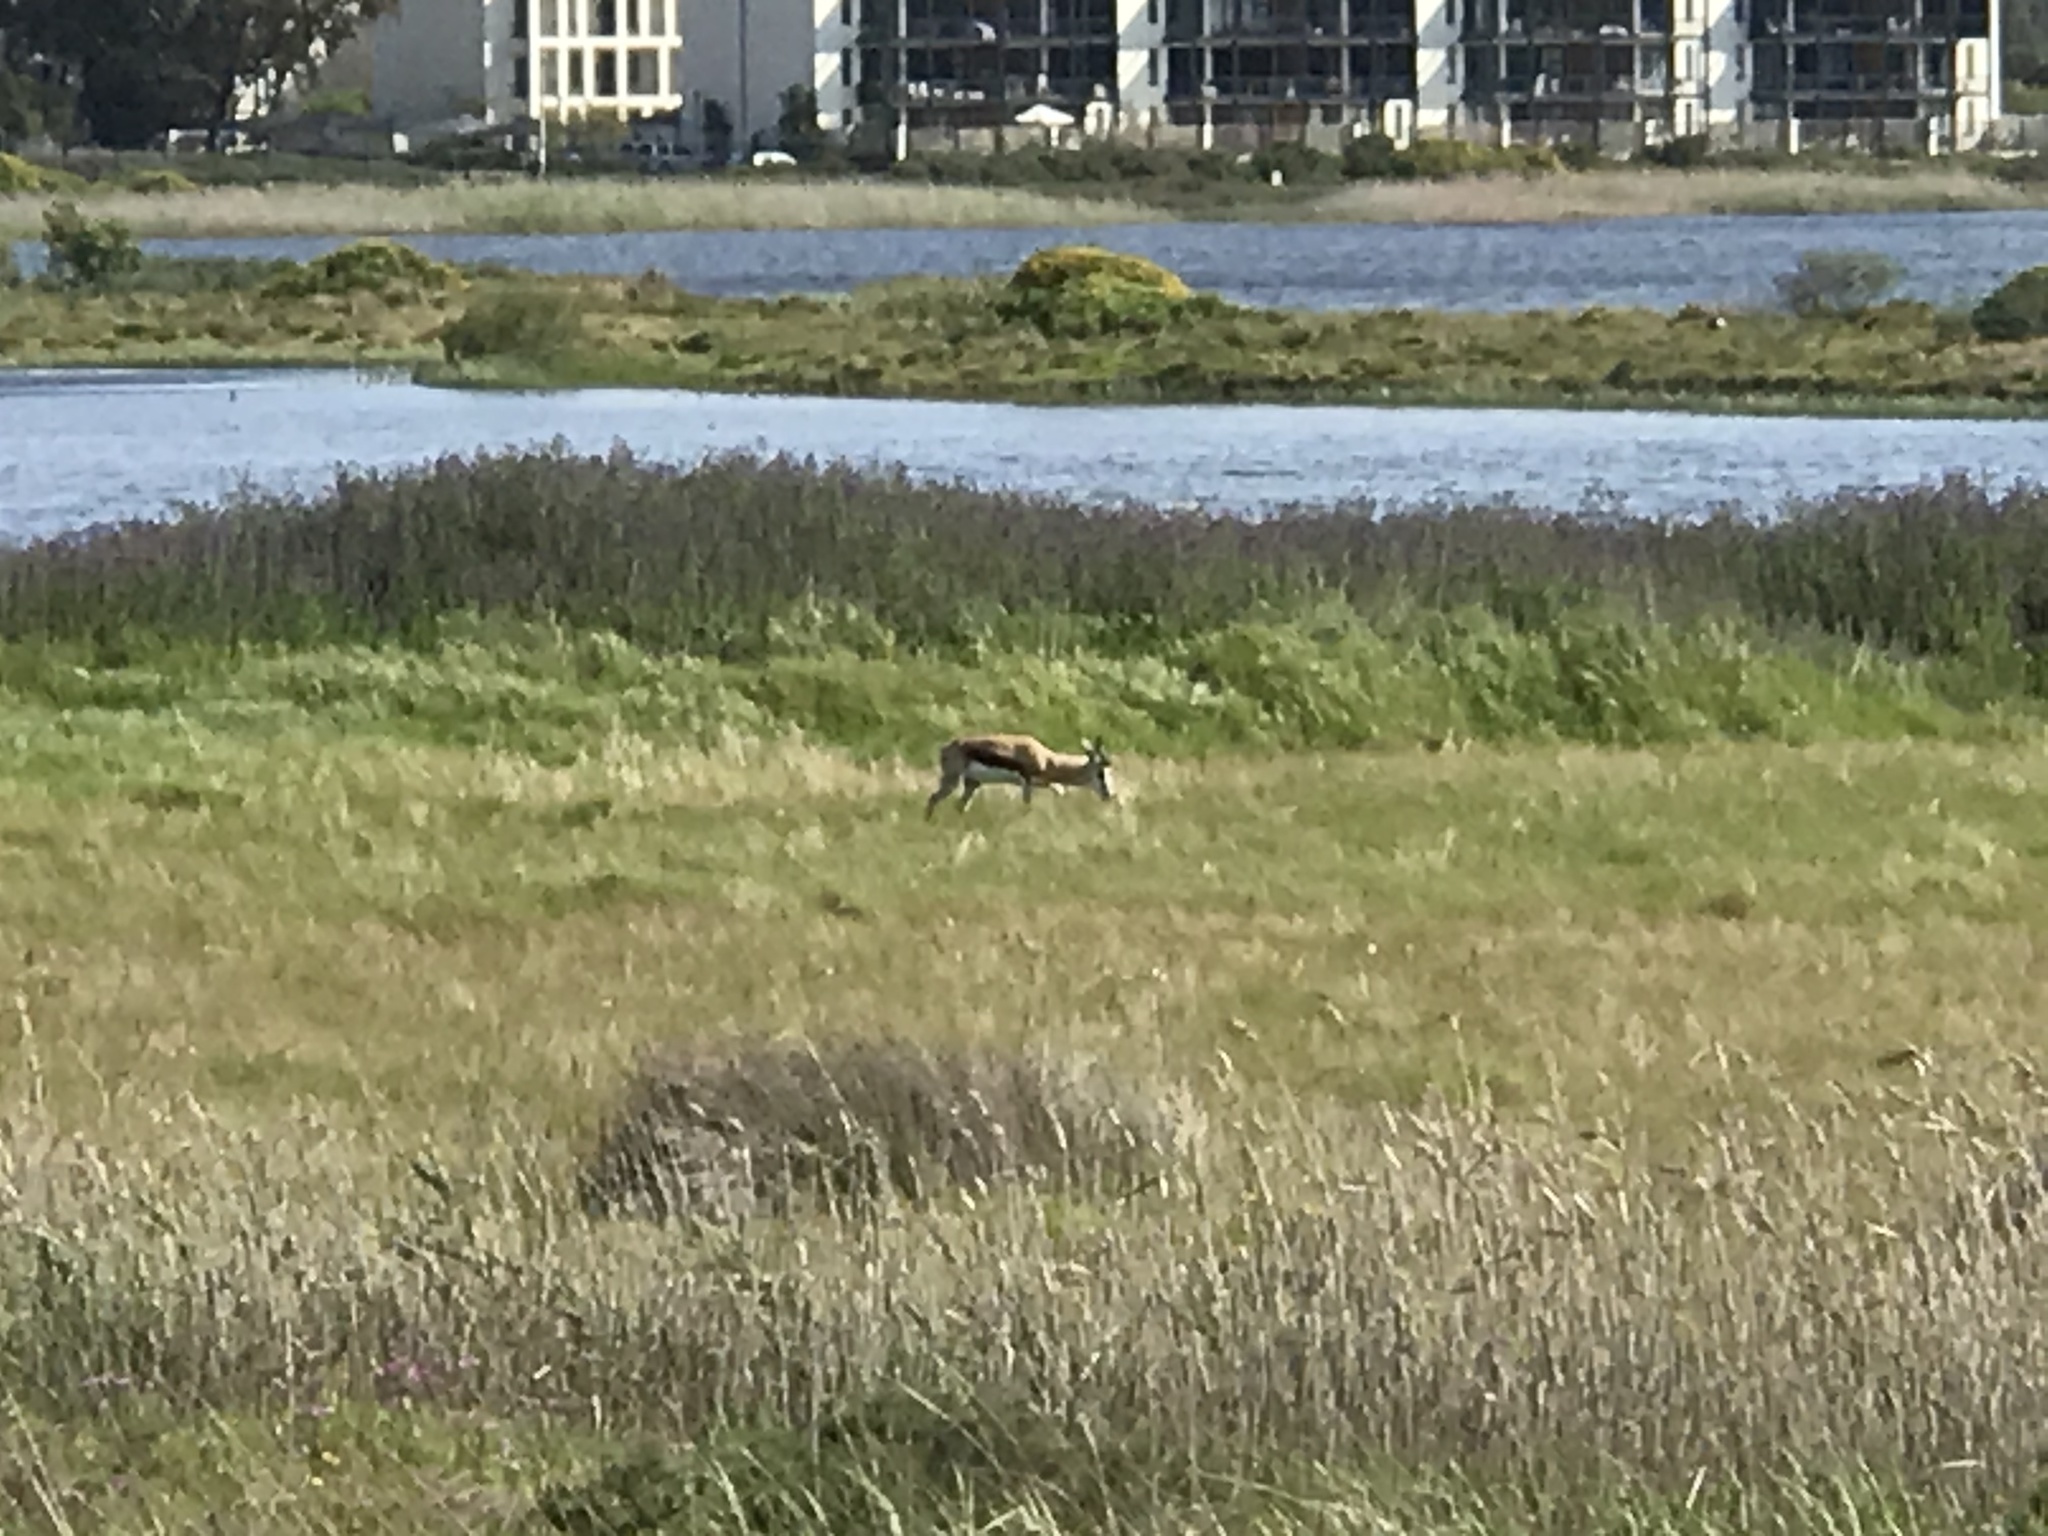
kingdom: Animalia
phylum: Chordata
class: Mammalia
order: Artiodactyla
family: Bovidae
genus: Antidorcas
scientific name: Antidorcas marsupialis
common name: Springbok
